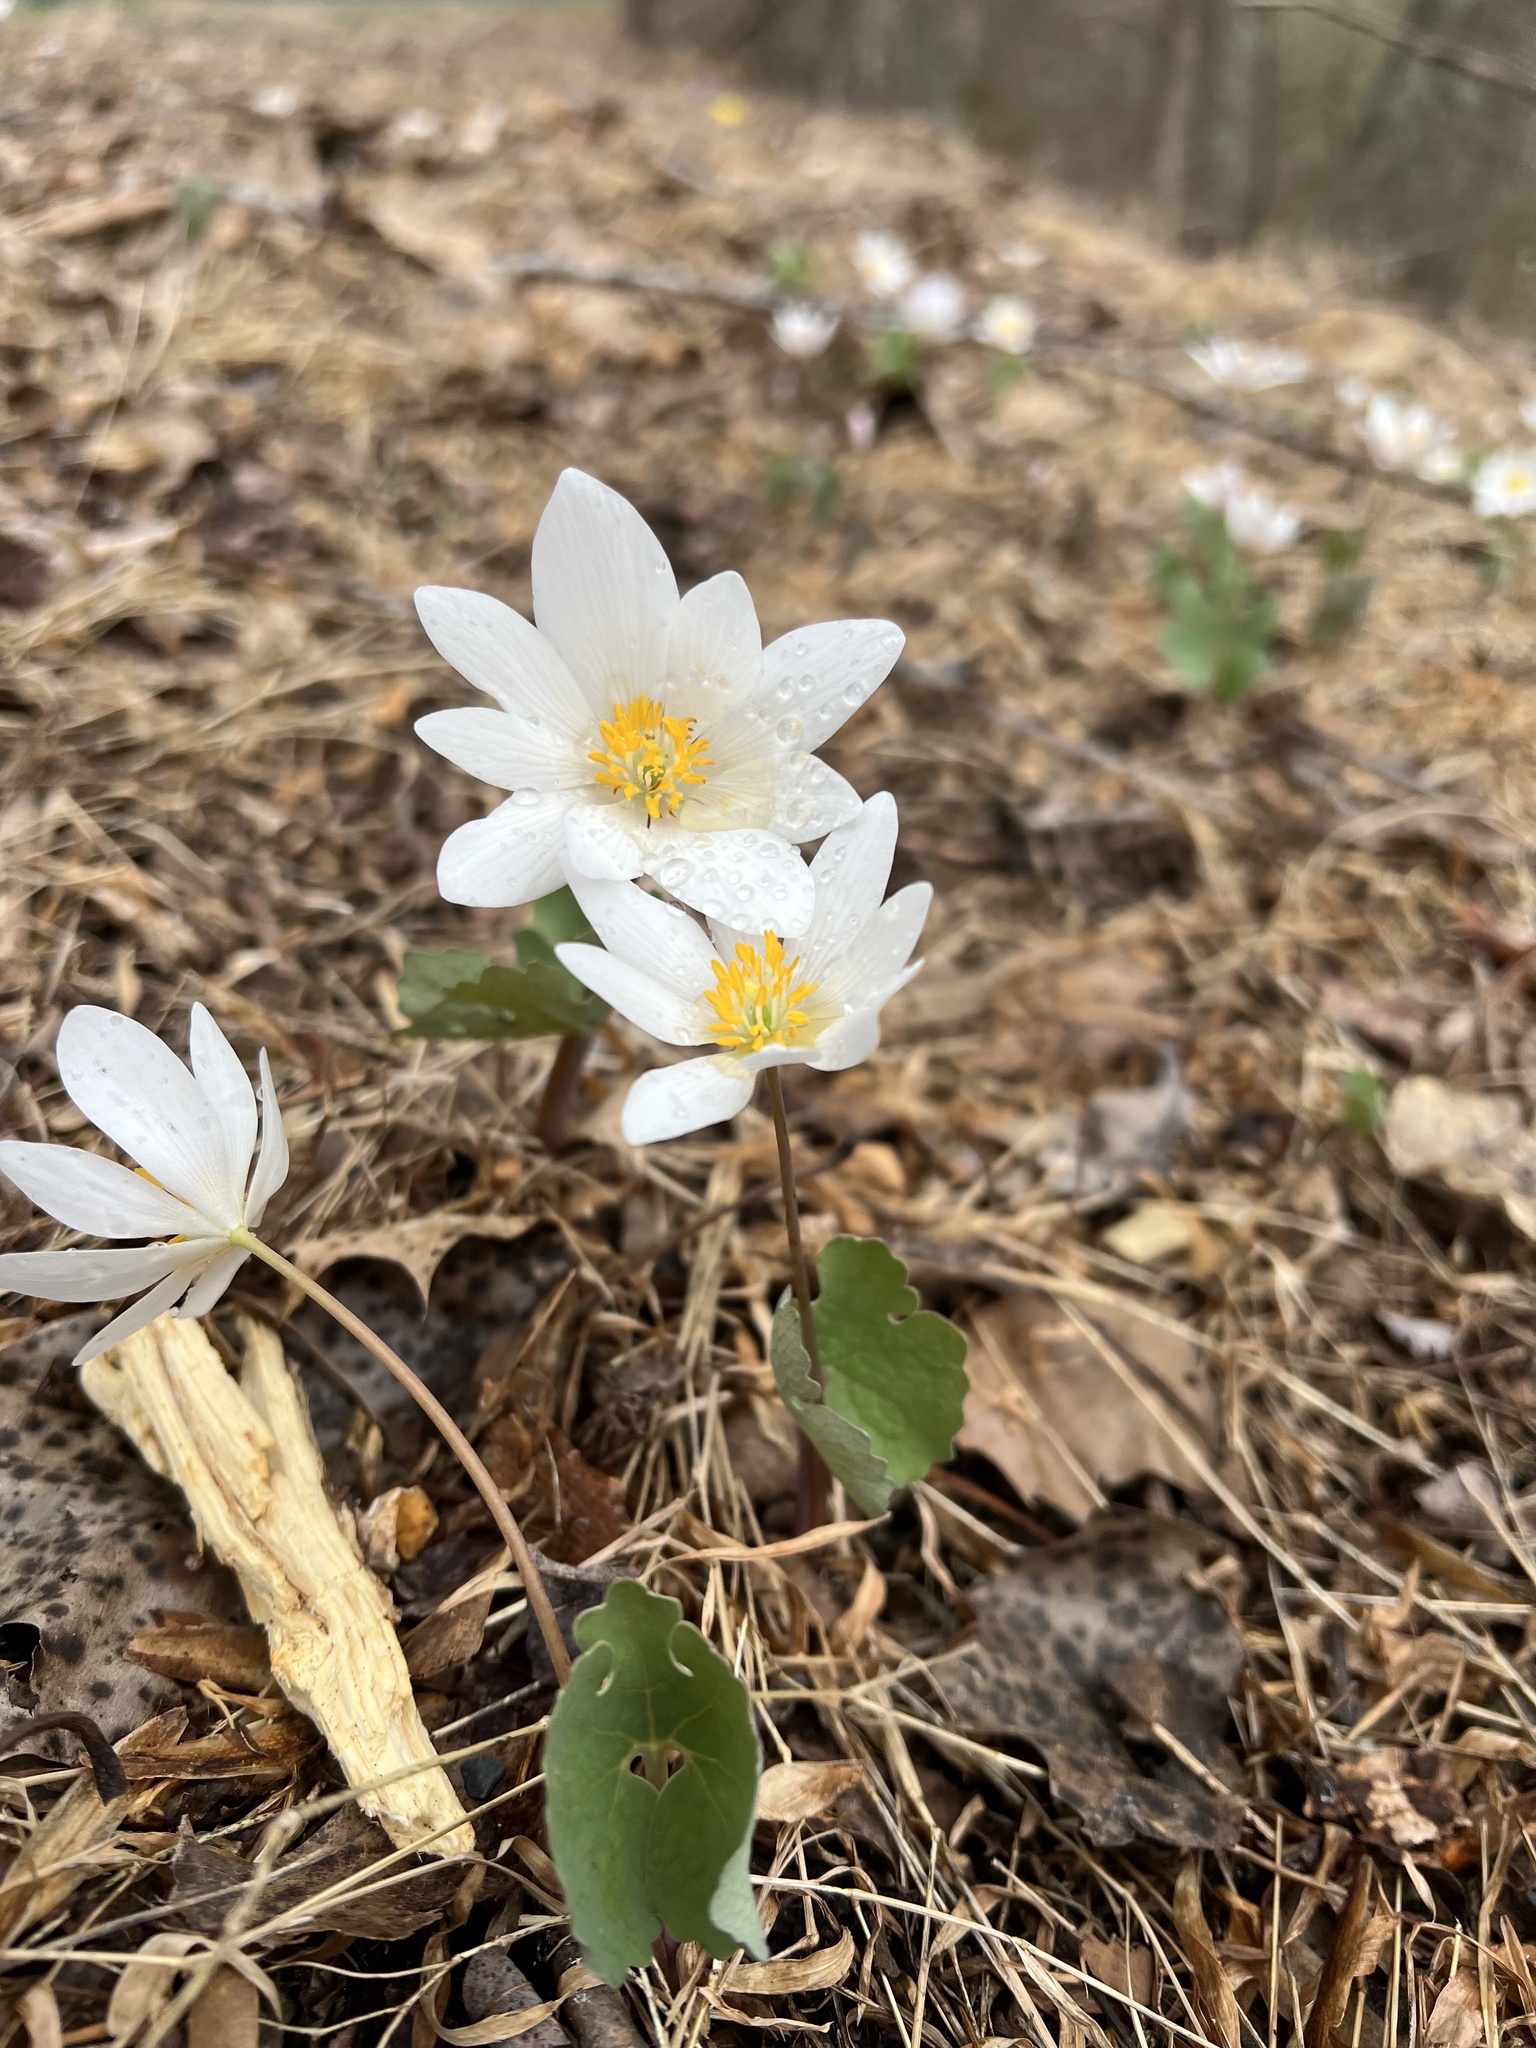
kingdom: Plantae
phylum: Tracheophyta
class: Magnoliopsida
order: Ranunculales
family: Papaveraceae
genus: Sanguinaria
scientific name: Sanguinaria canadensis
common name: Bloodroot
